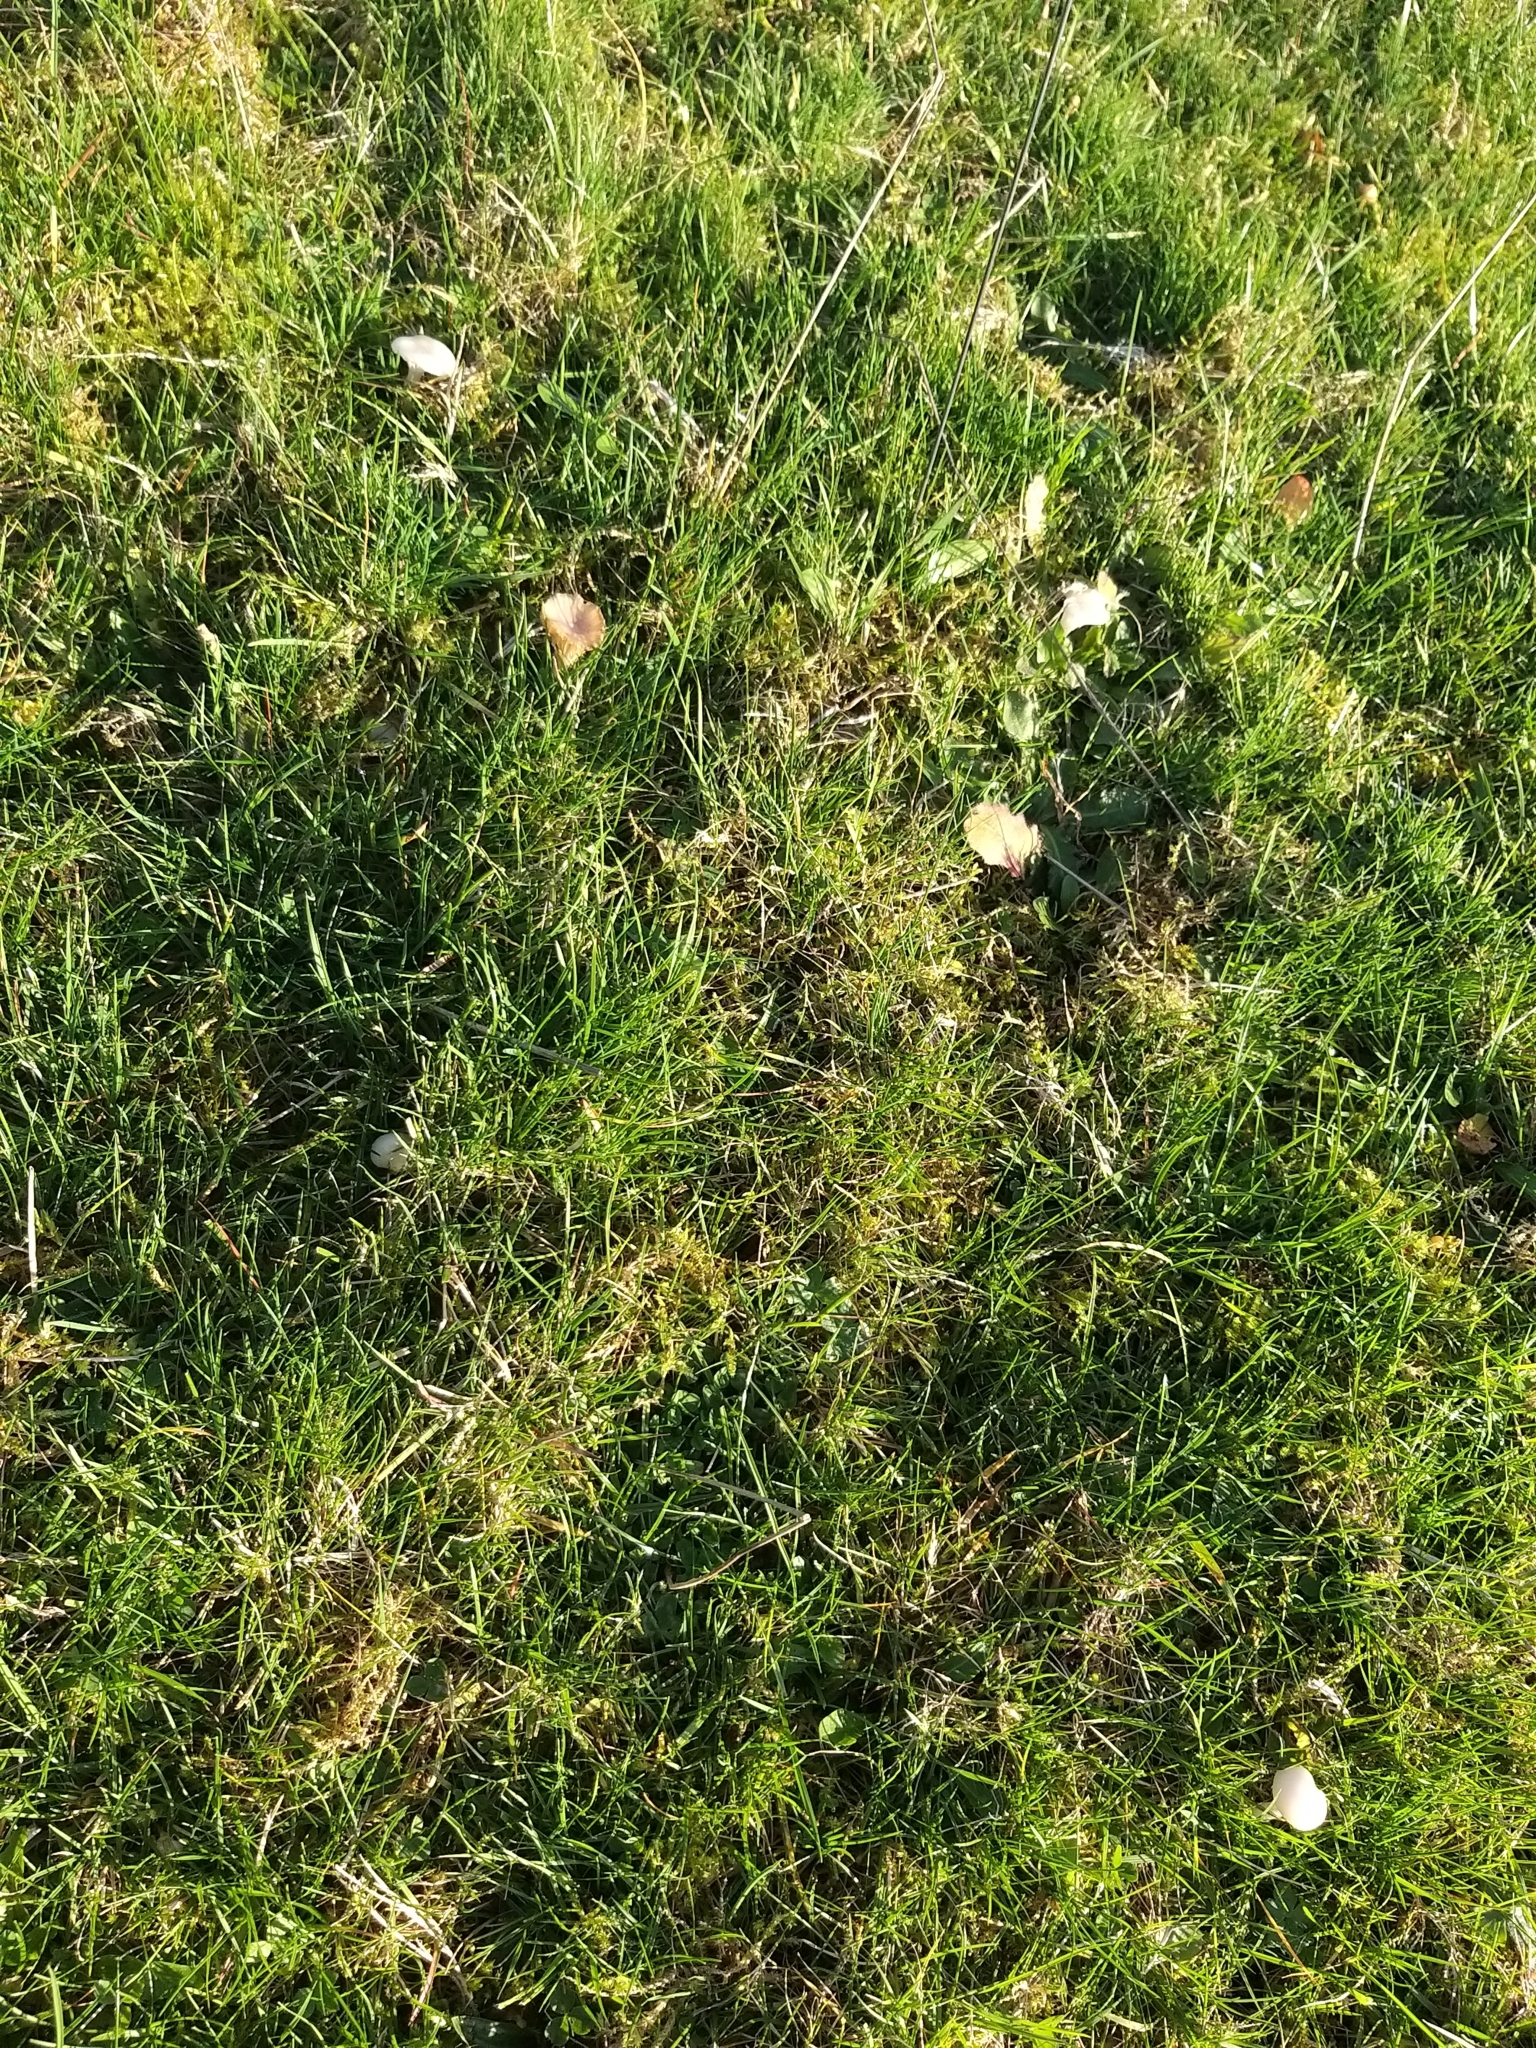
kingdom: Fungi
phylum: Basidiomycota
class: Agaricomycetes
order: Agaricales
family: Hygrophoraceae
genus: Cuphophyllus
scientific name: Cuphophyllus virgineus
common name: Snowy waxcap
